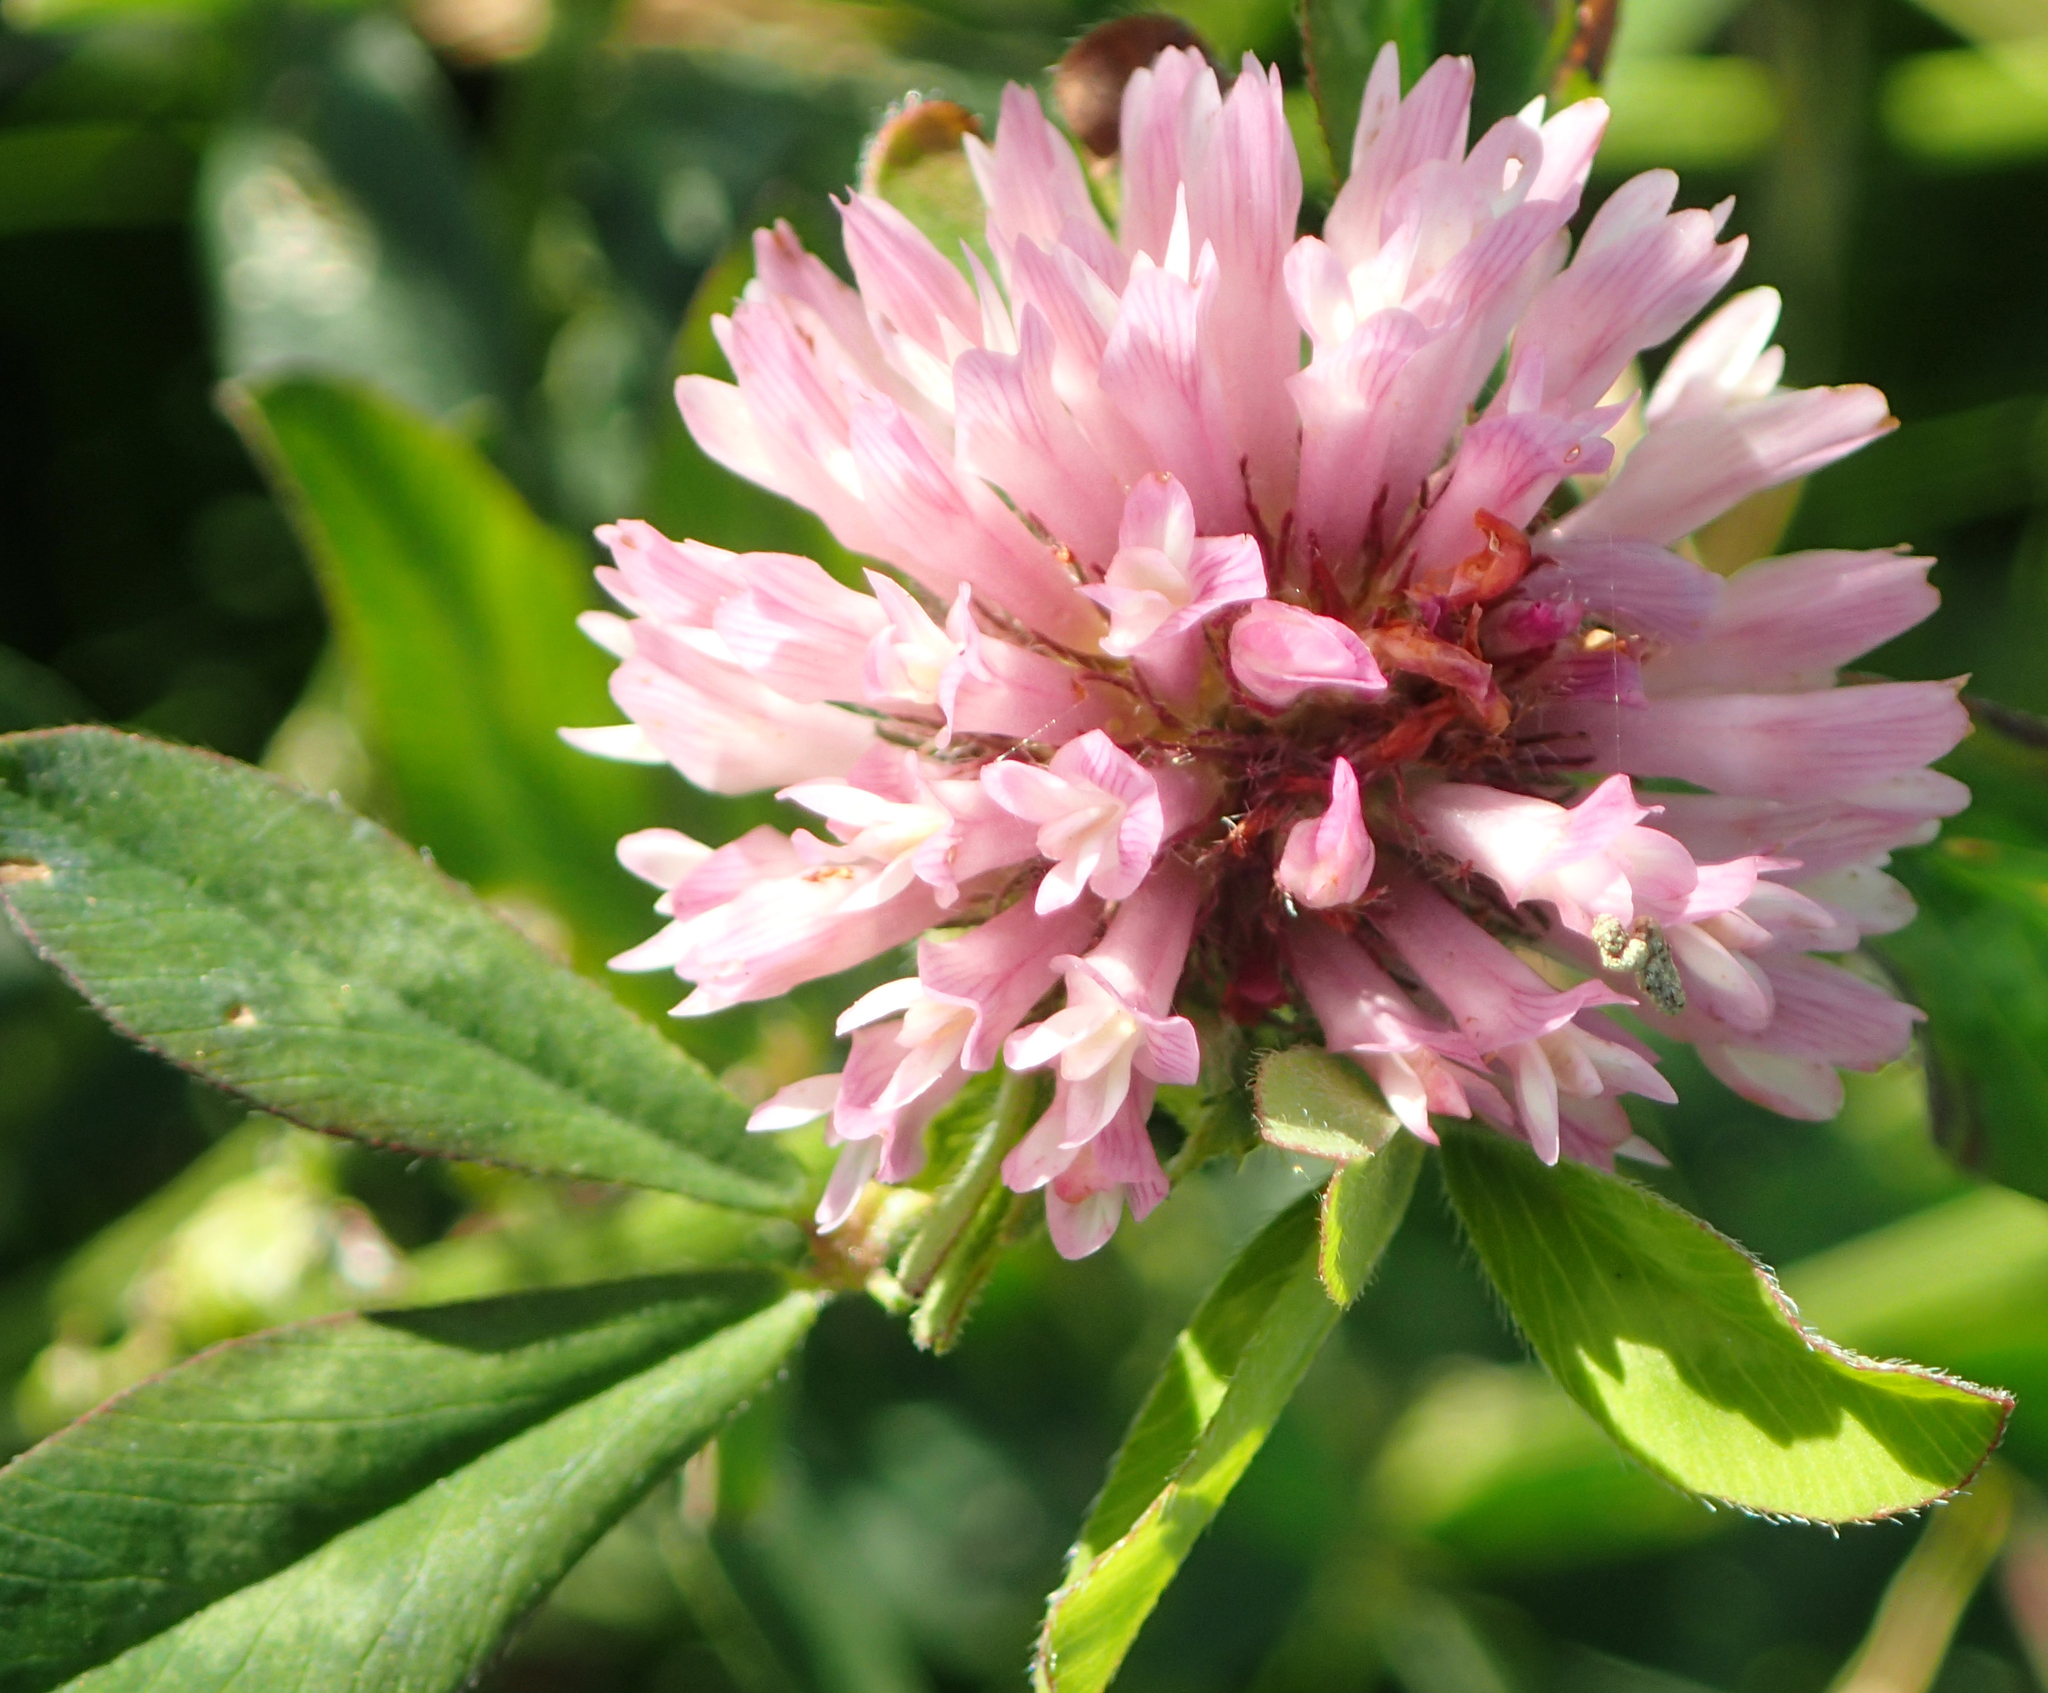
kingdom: Plantae
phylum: Tracheophyta
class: Magnoliopsida
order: Fabales
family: Fabaceae
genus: Trifolium
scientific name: Trifolium pratense
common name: Red clover
